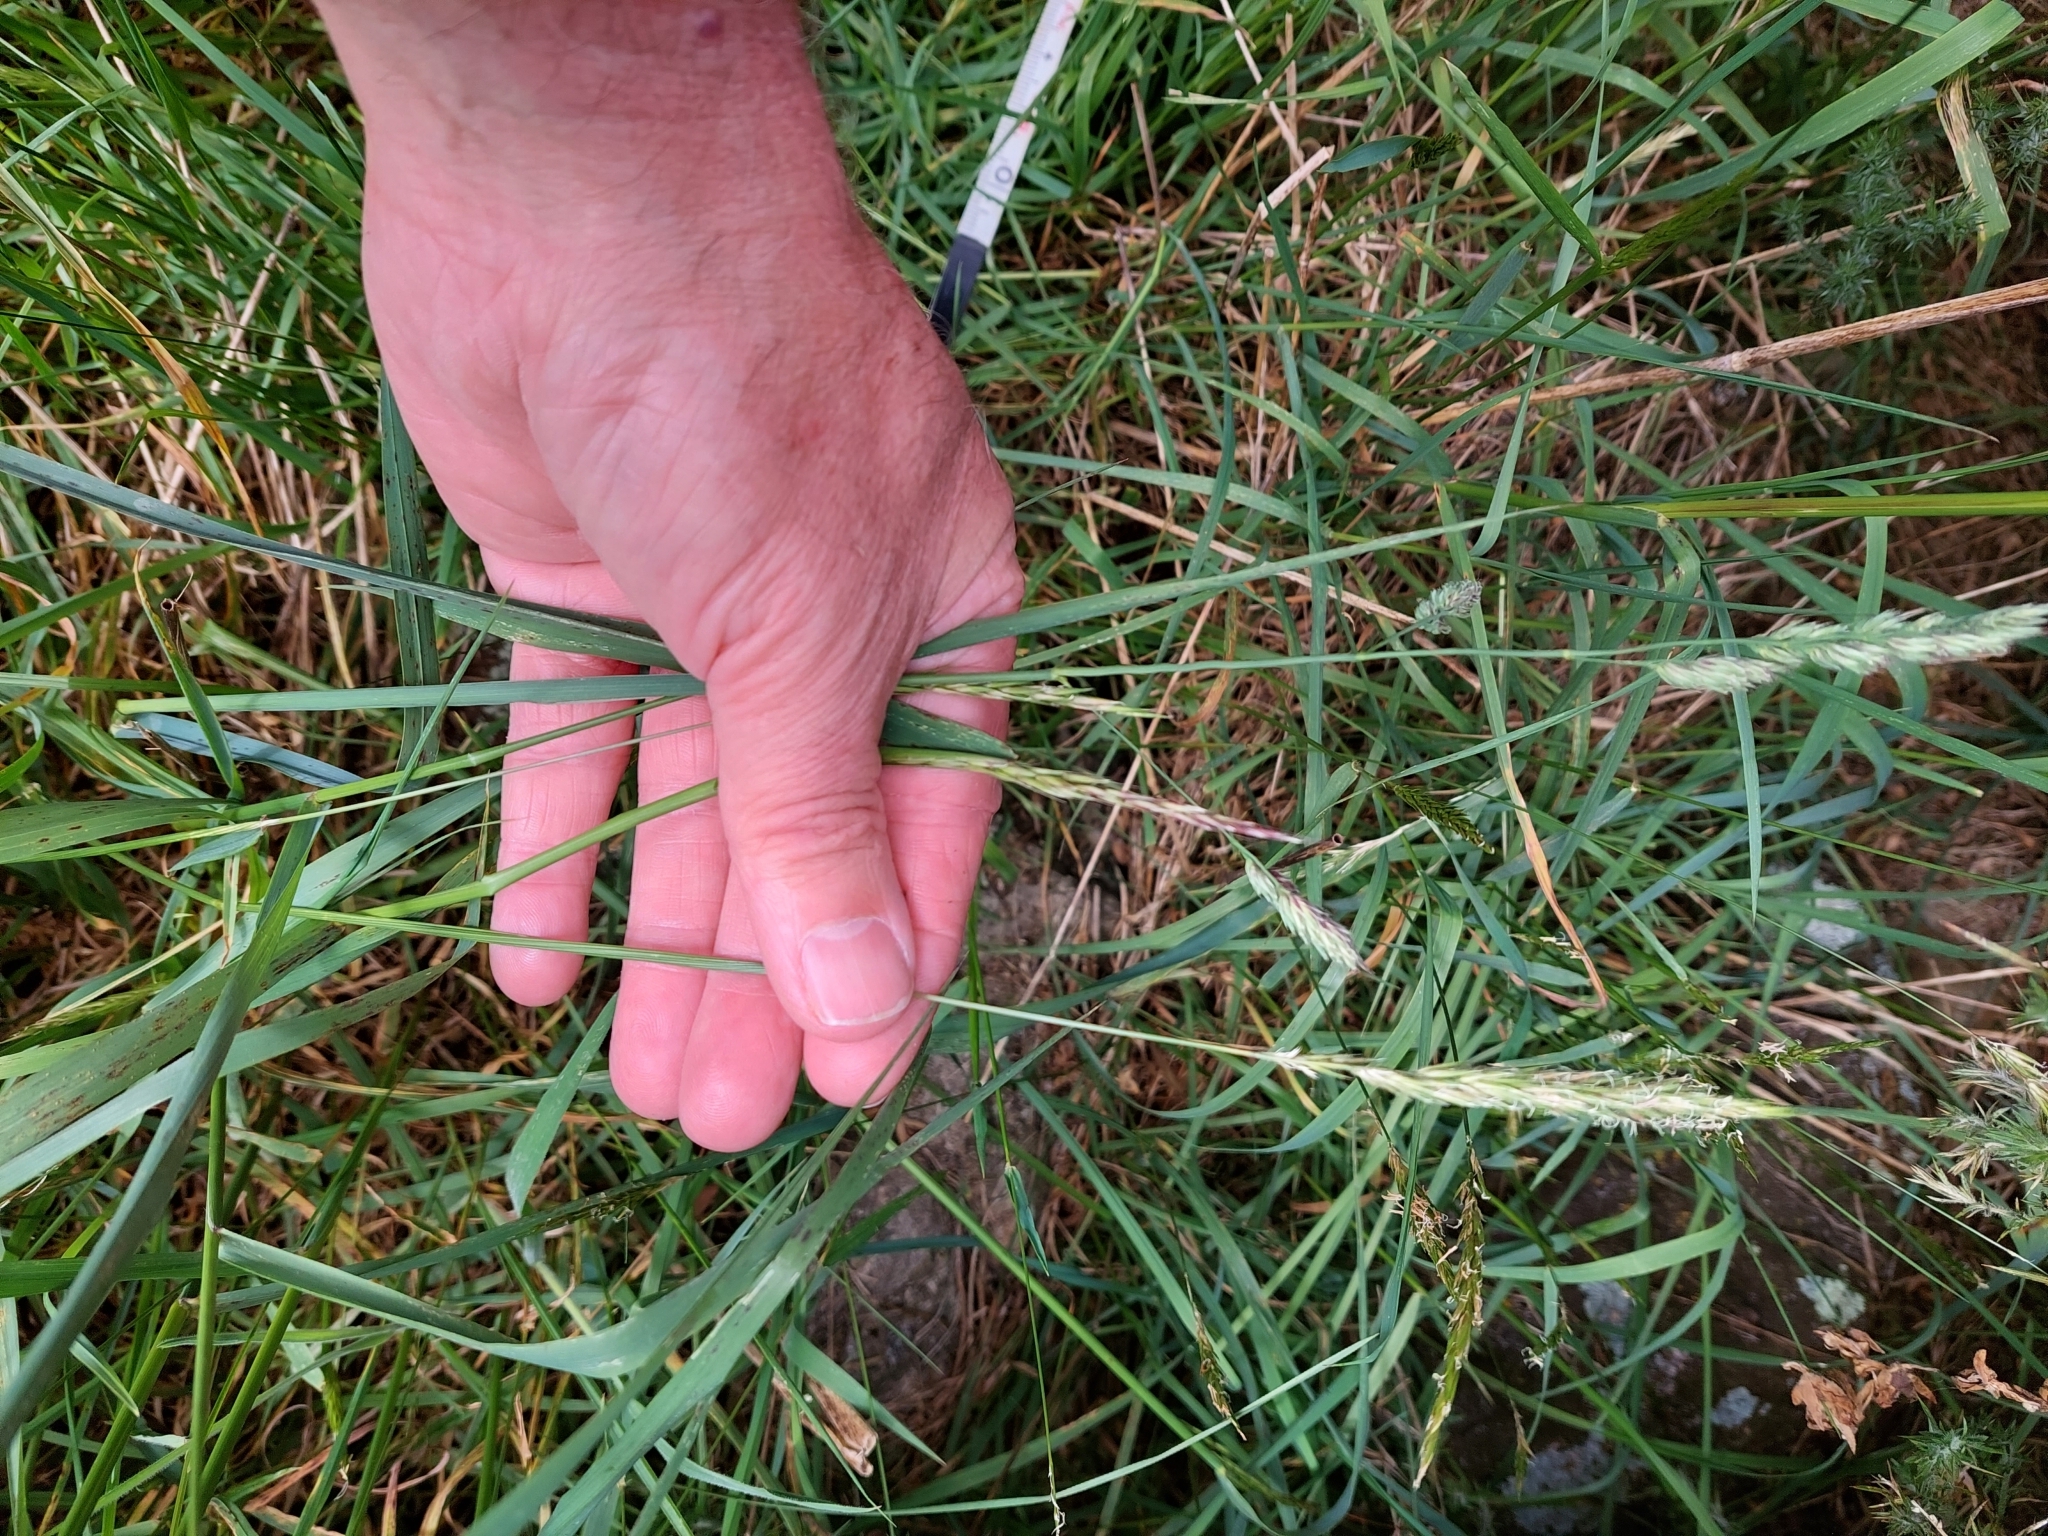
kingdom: Plantae
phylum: Tracheophyta
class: Liliopsida
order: Poales
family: Poaceae
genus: Anthoxanthum
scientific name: Anthoxanthum odoratum
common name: Sweet vernalgrass
